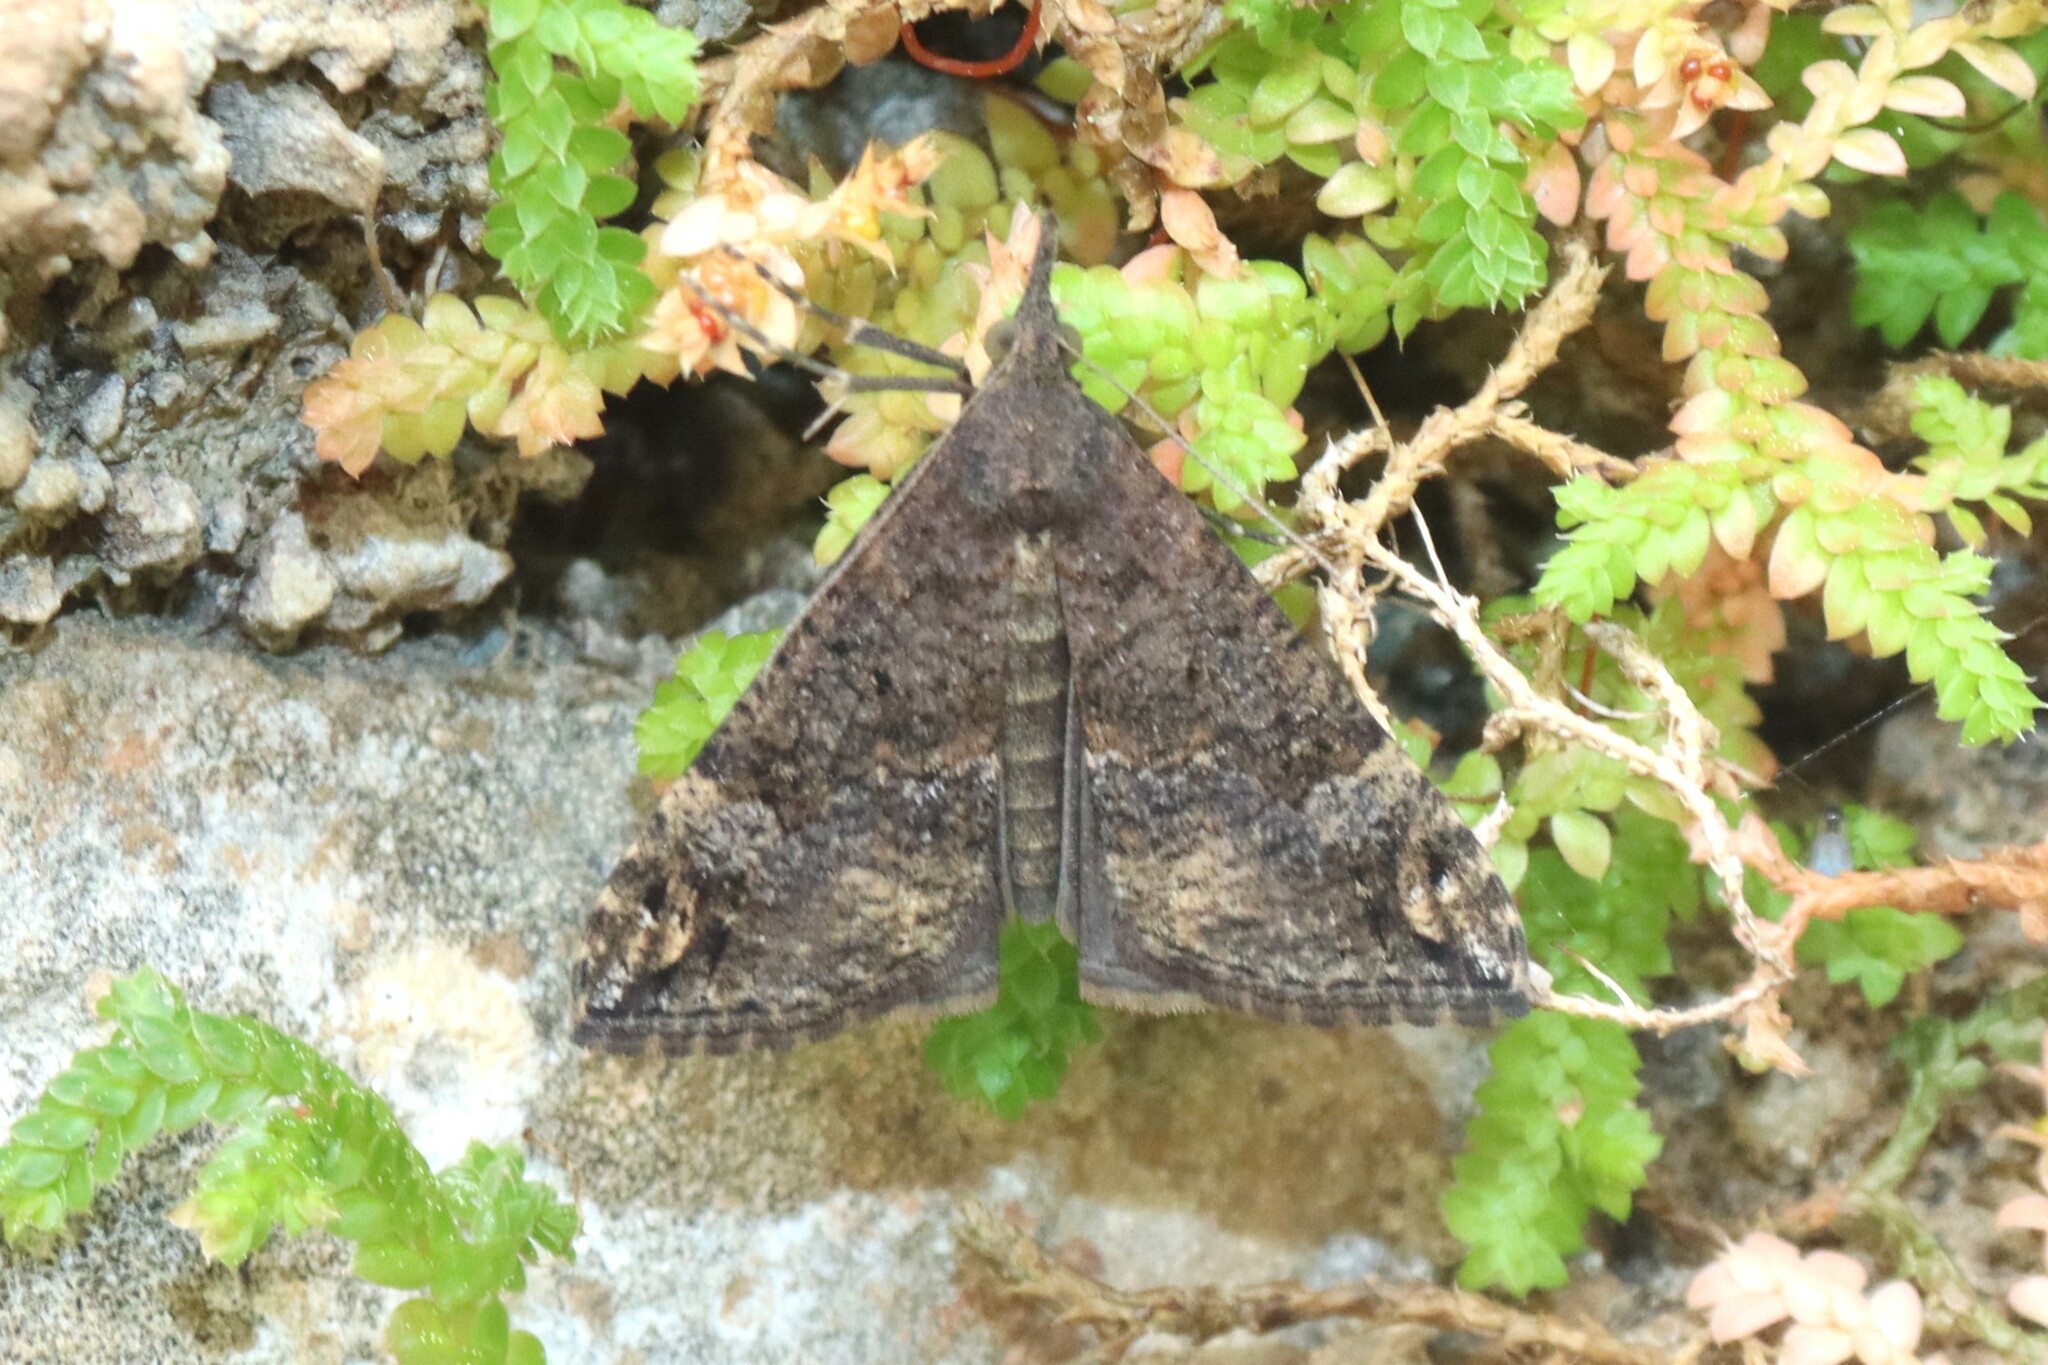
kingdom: Animalia
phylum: Arthropoda
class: Insecta
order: Lepidoptera
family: Erebidae
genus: Hypena
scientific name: Hypena obsitalis
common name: Bloxworth snout
